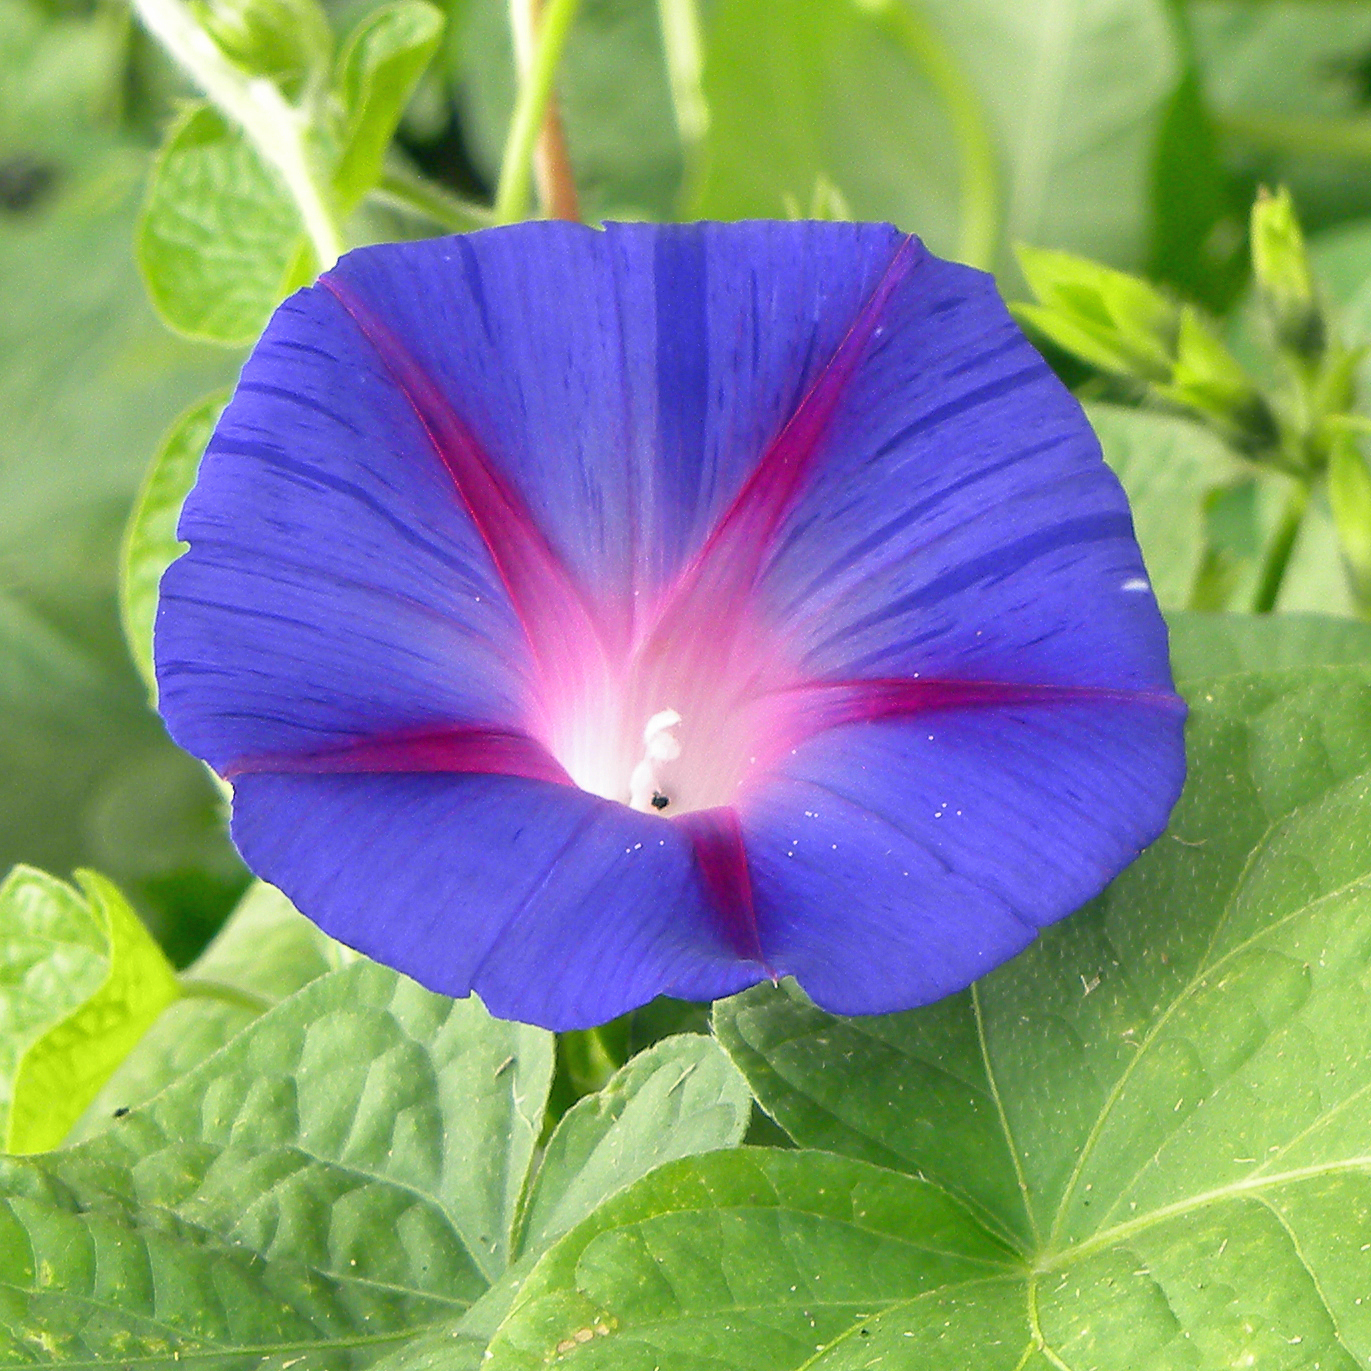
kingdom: Plantae
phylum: Tracheophyta
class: Magnoliopsida
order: Solanales
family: Convolvulaceae
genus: Ipomoea
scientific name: Ipomoea purpurea
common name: Common morning-glory
